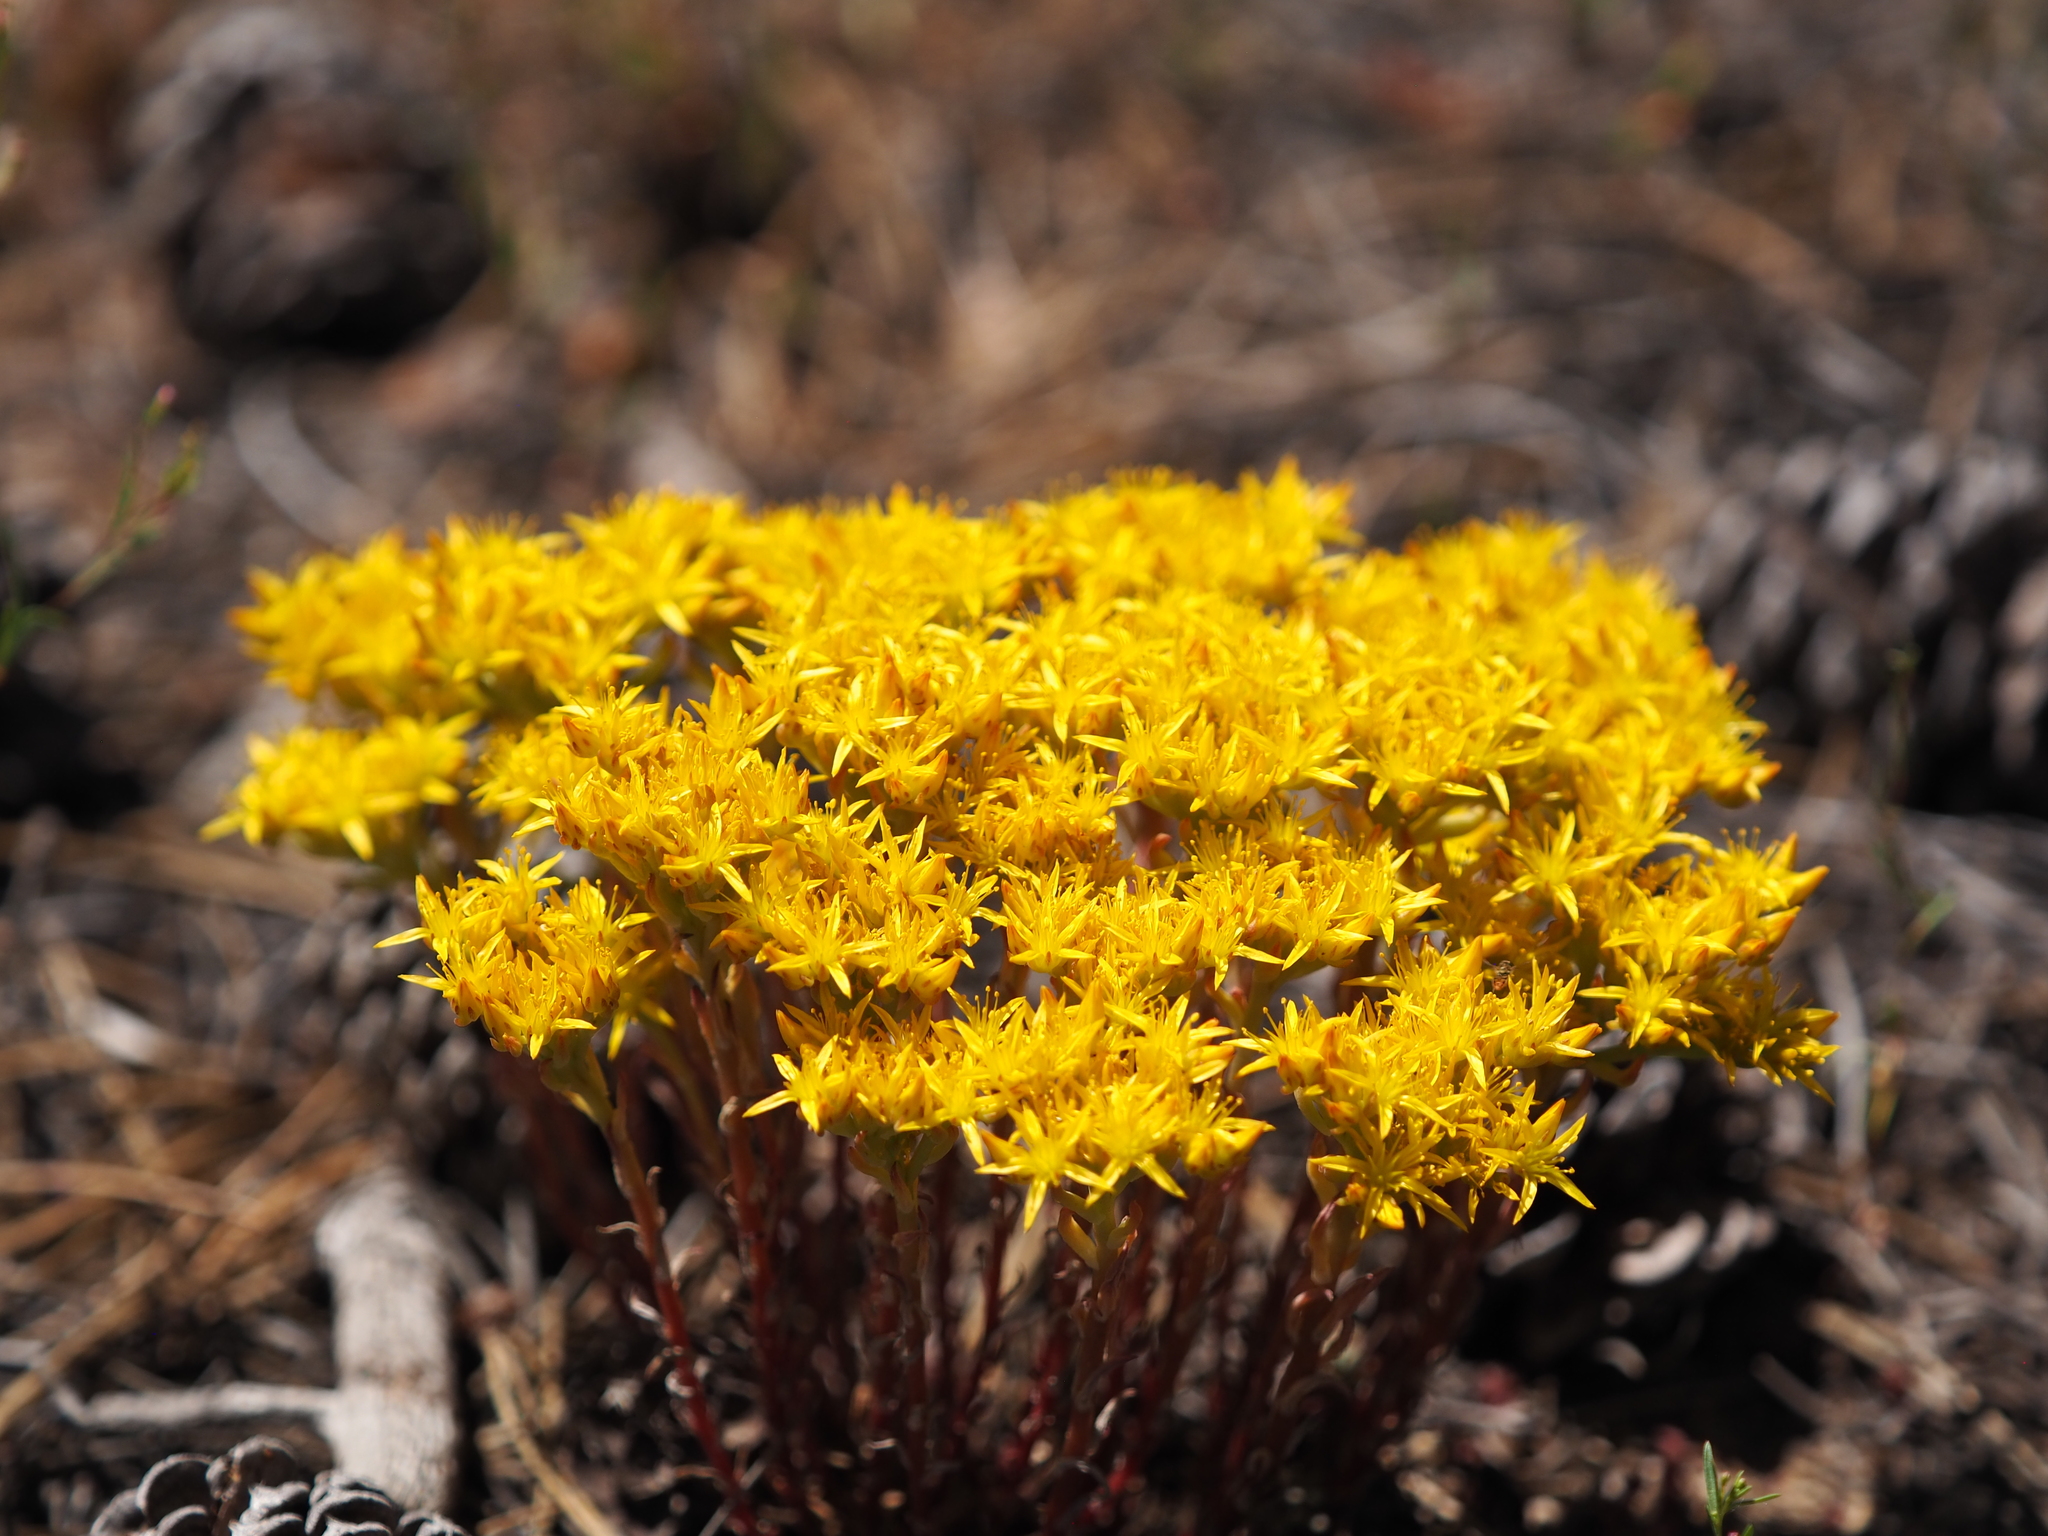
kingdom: Plantae
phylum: Tracheophyta
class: Magnoliopsida
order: Saxifragales
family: Crassulaceae
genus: Sedum
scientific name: Sedum lanceolatum
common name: Common stonecrop
